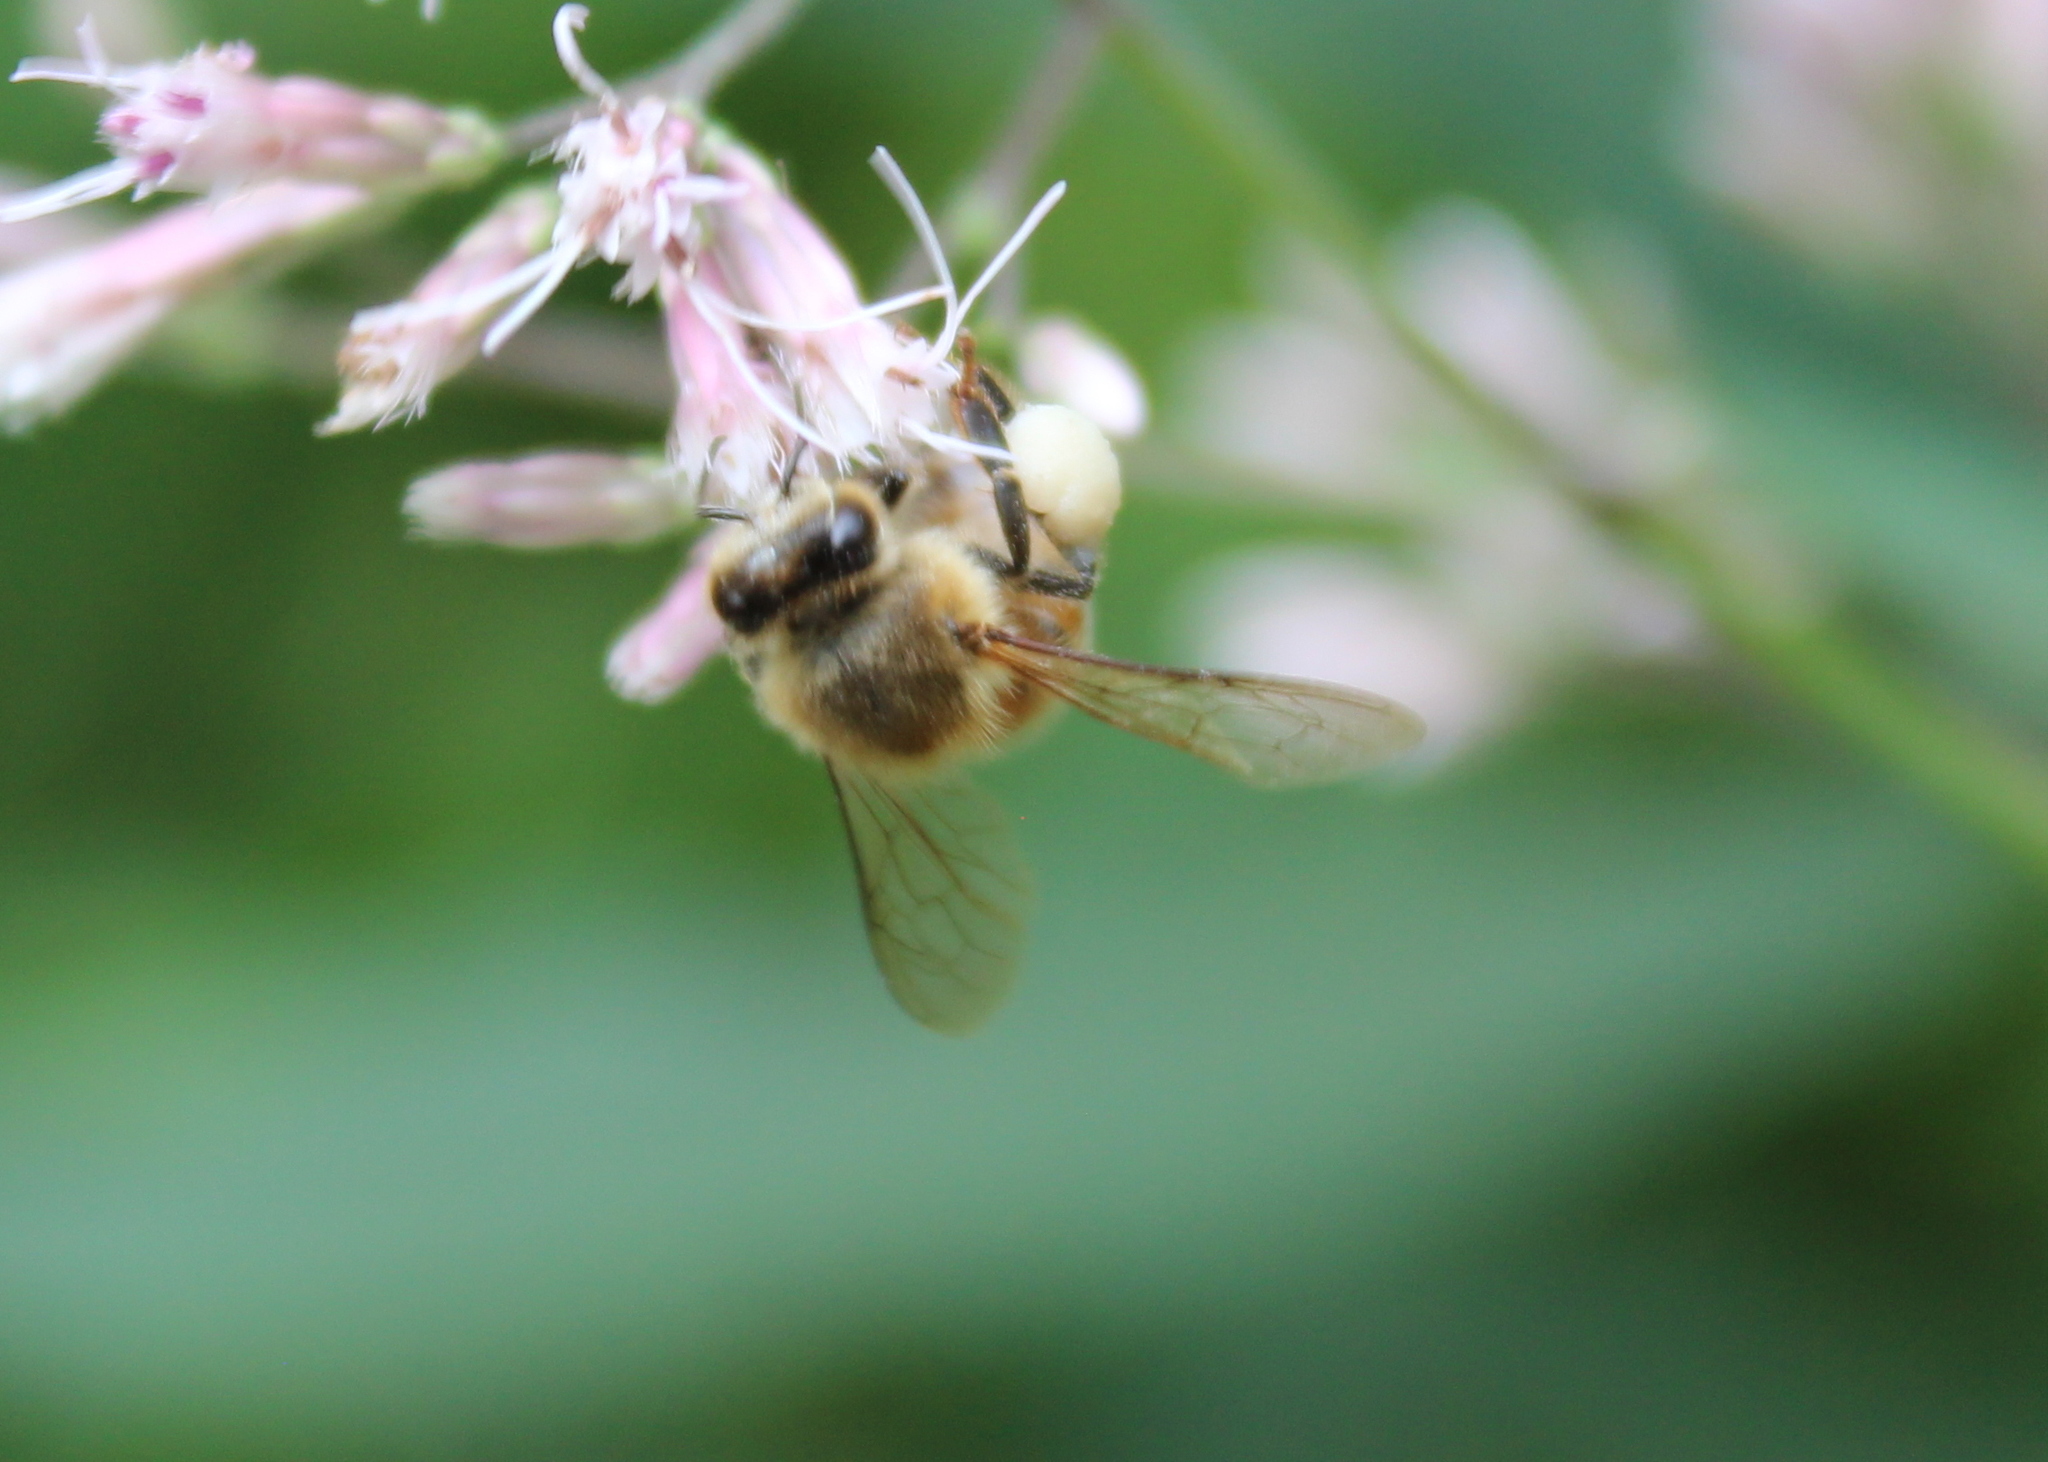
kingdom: Animalia
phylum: Arthropoda
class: Insecta
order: Hymenoptera
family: Apidae
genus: Apis
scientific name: Apis mellifera
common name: Honey bee
